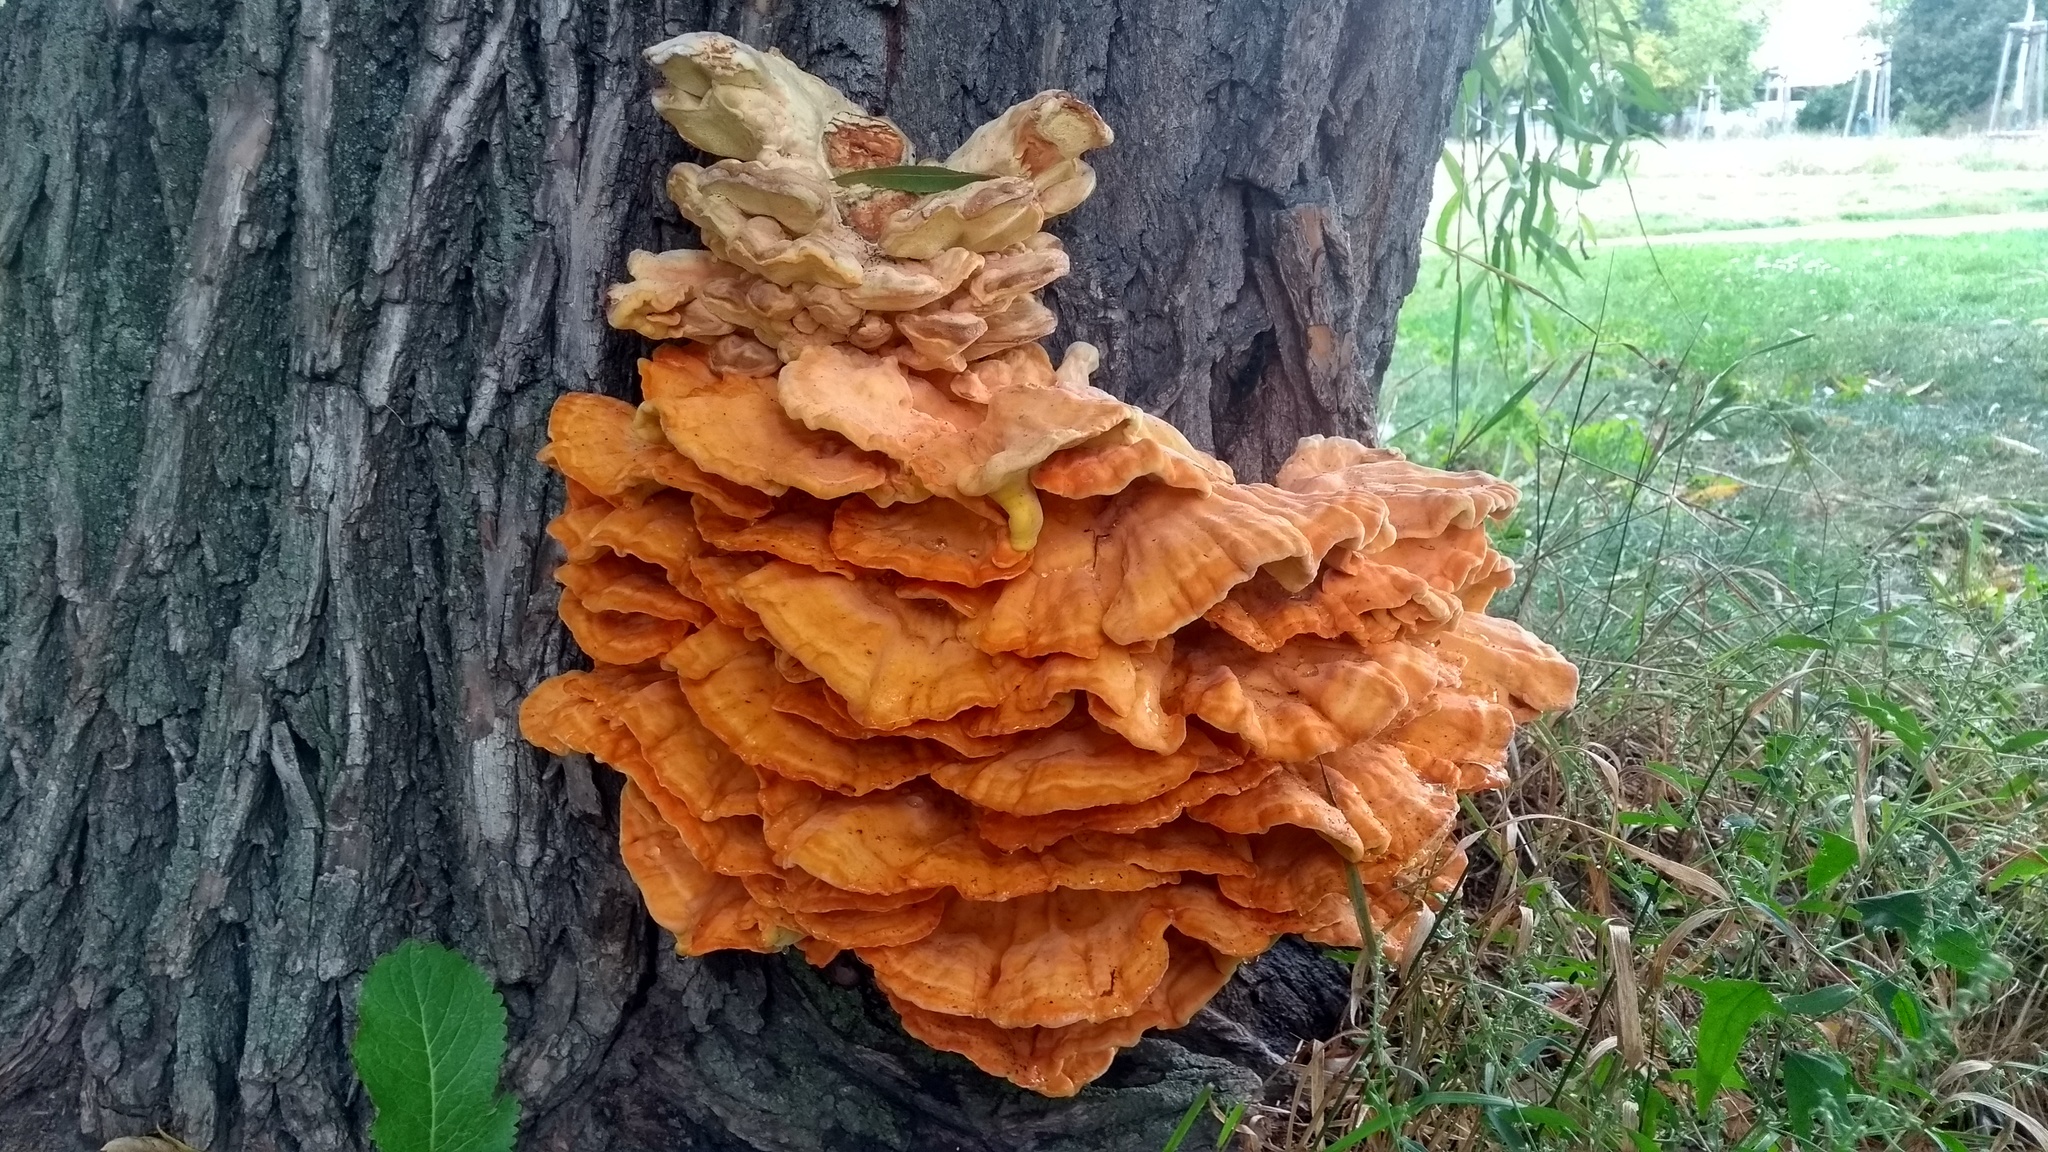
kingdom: Fungi
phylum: Basidiomycota
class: Agaricomycetes
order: Polyporales
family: Laetiporaceae
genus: Laetiporus
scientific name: Laetiporus sulphureus
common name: Chicken of the woods
